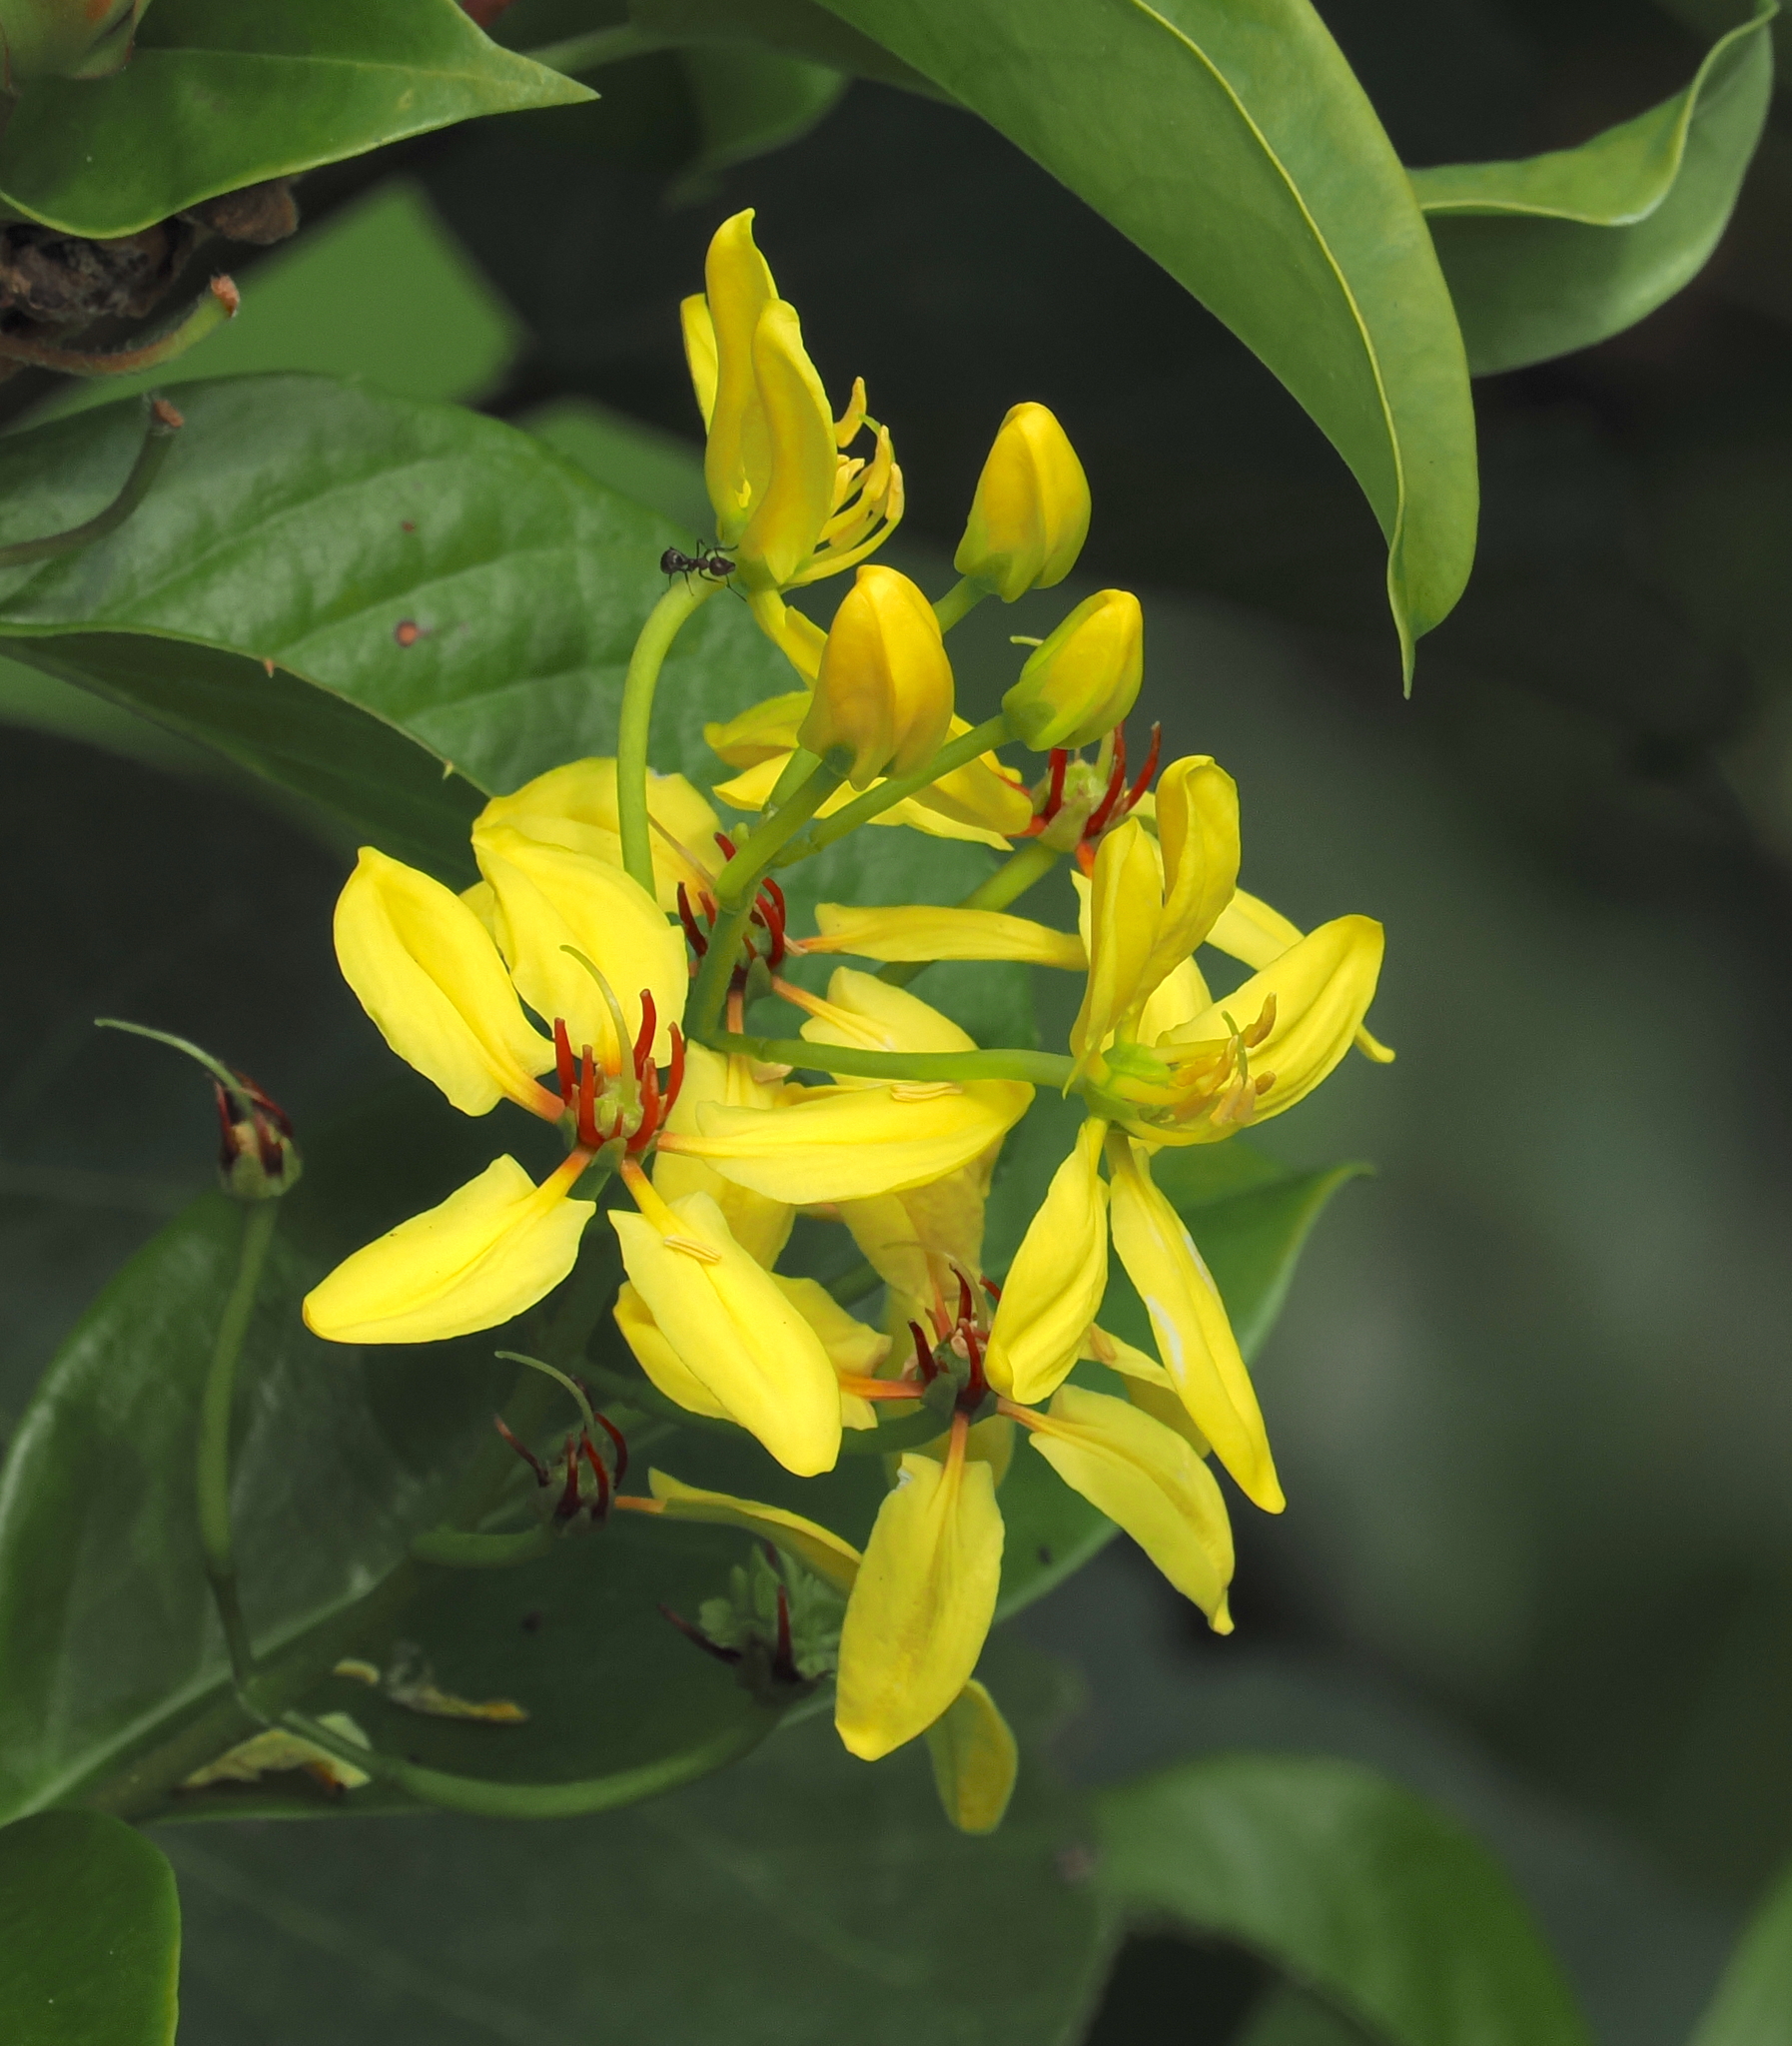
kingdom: Plantae
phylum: Tracheophyta
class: Magnoliopsida
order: Malpighiales
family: Malpighiaceae
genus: Tristellateia
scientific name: Tristellateia australasiae
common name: Australian goldvine
